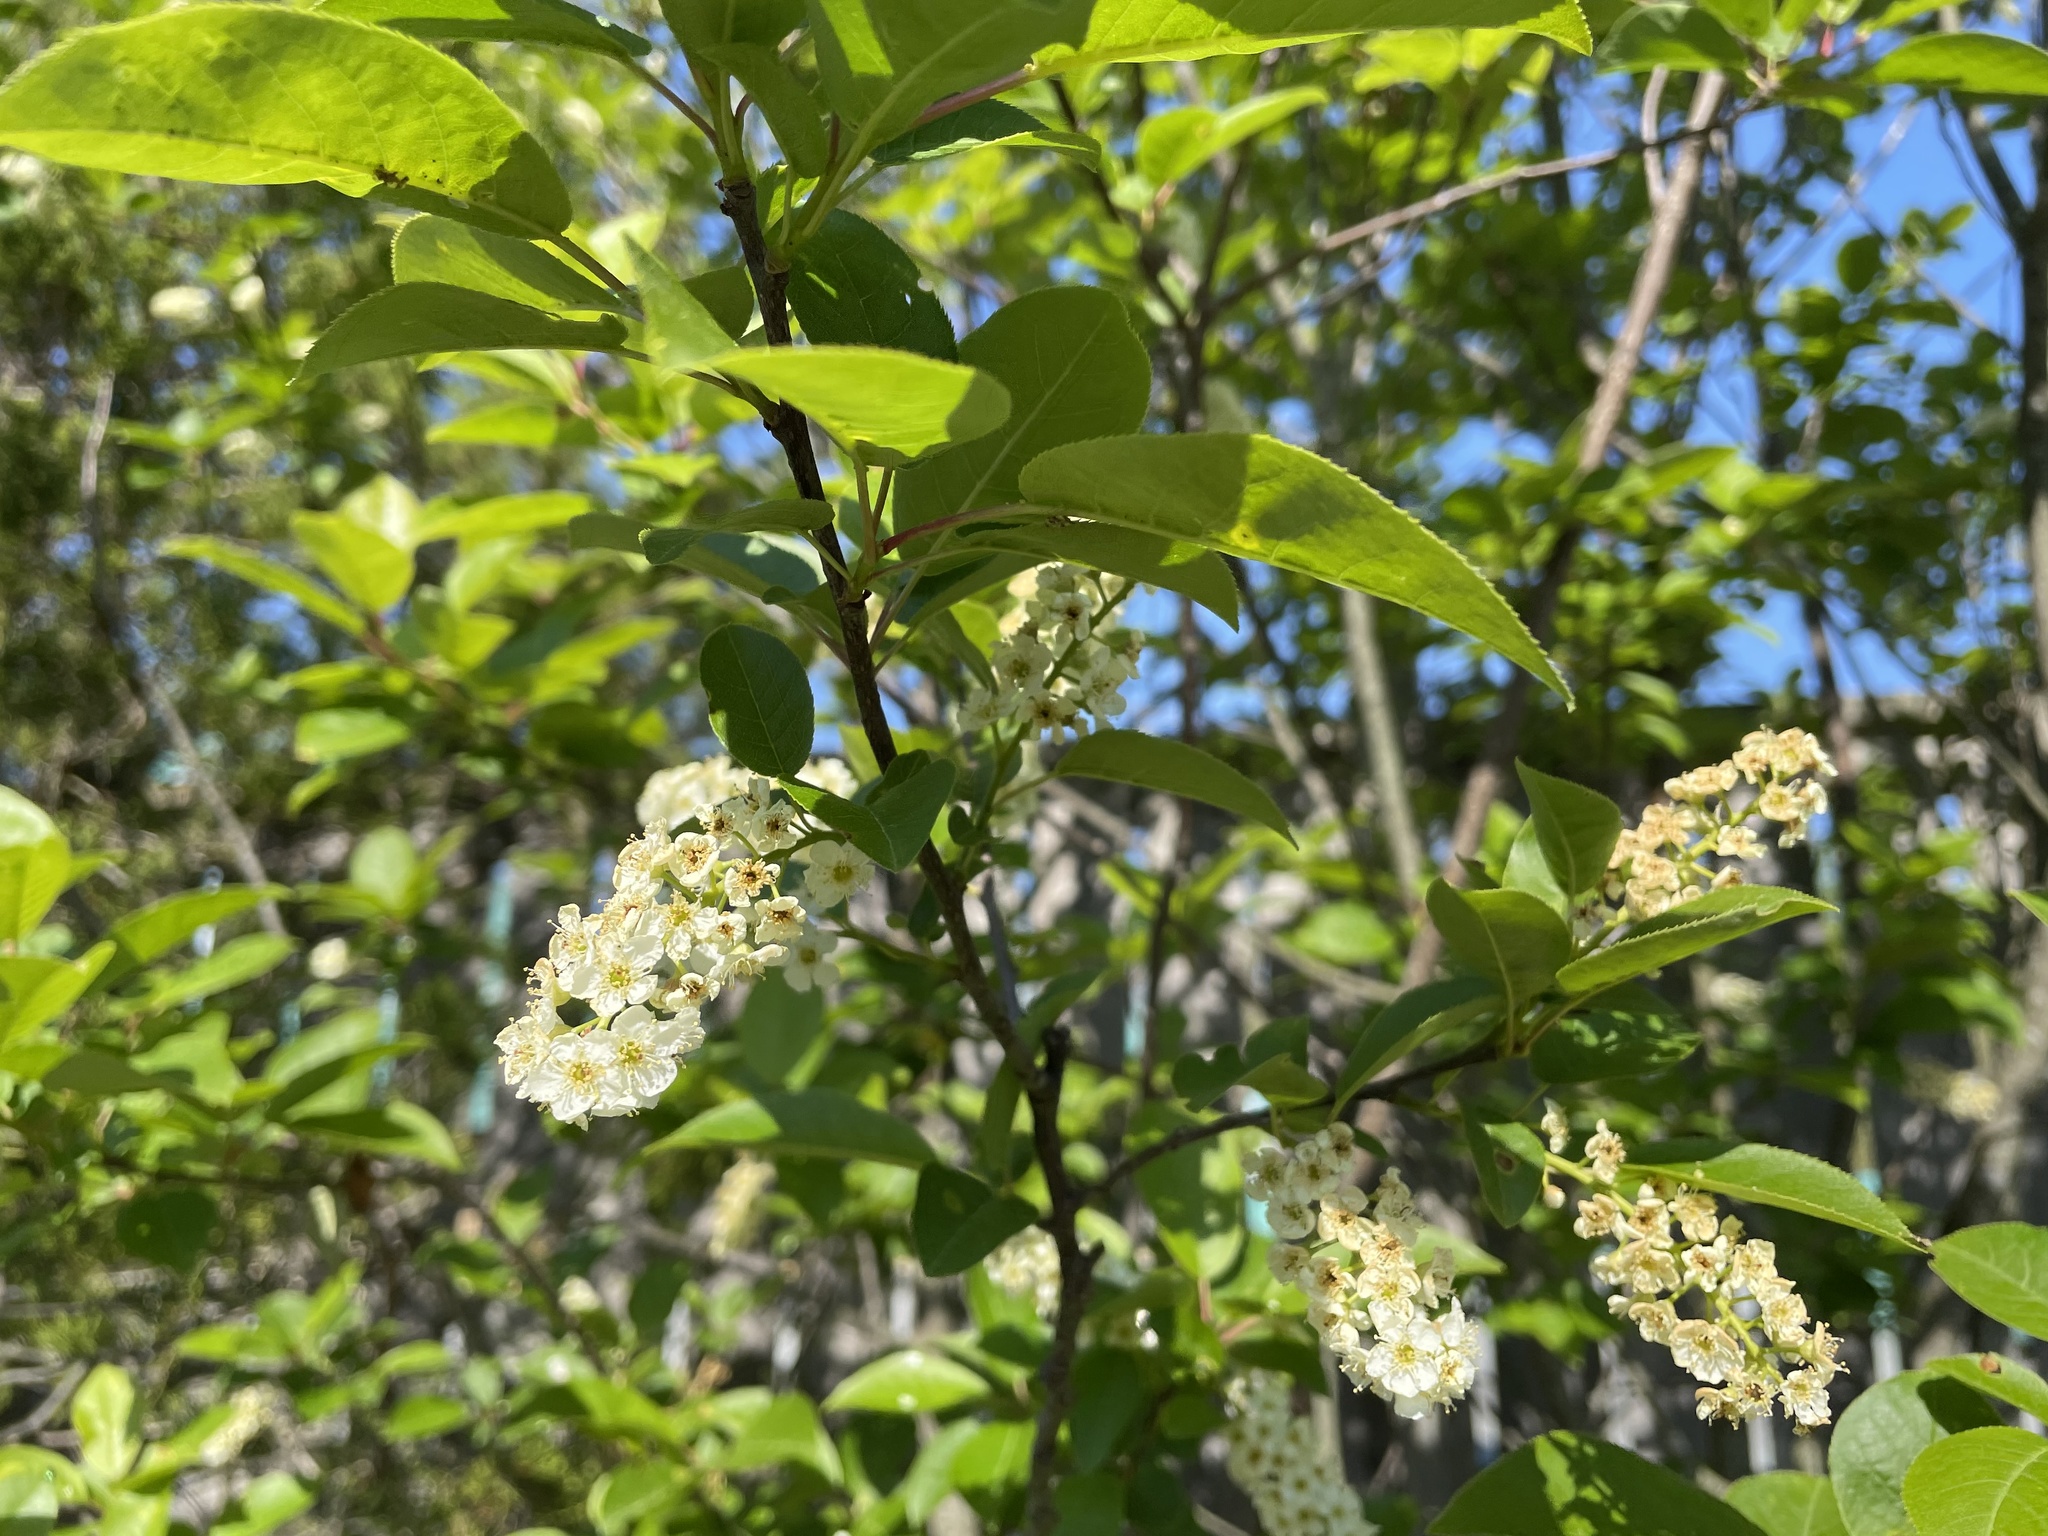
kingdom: Plantae
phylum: Tracheophyta
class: Magnoliopsida
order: Rosales
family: Rosaceae
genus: Prunus
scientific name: Prunus virginiana
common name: Chokecherry
